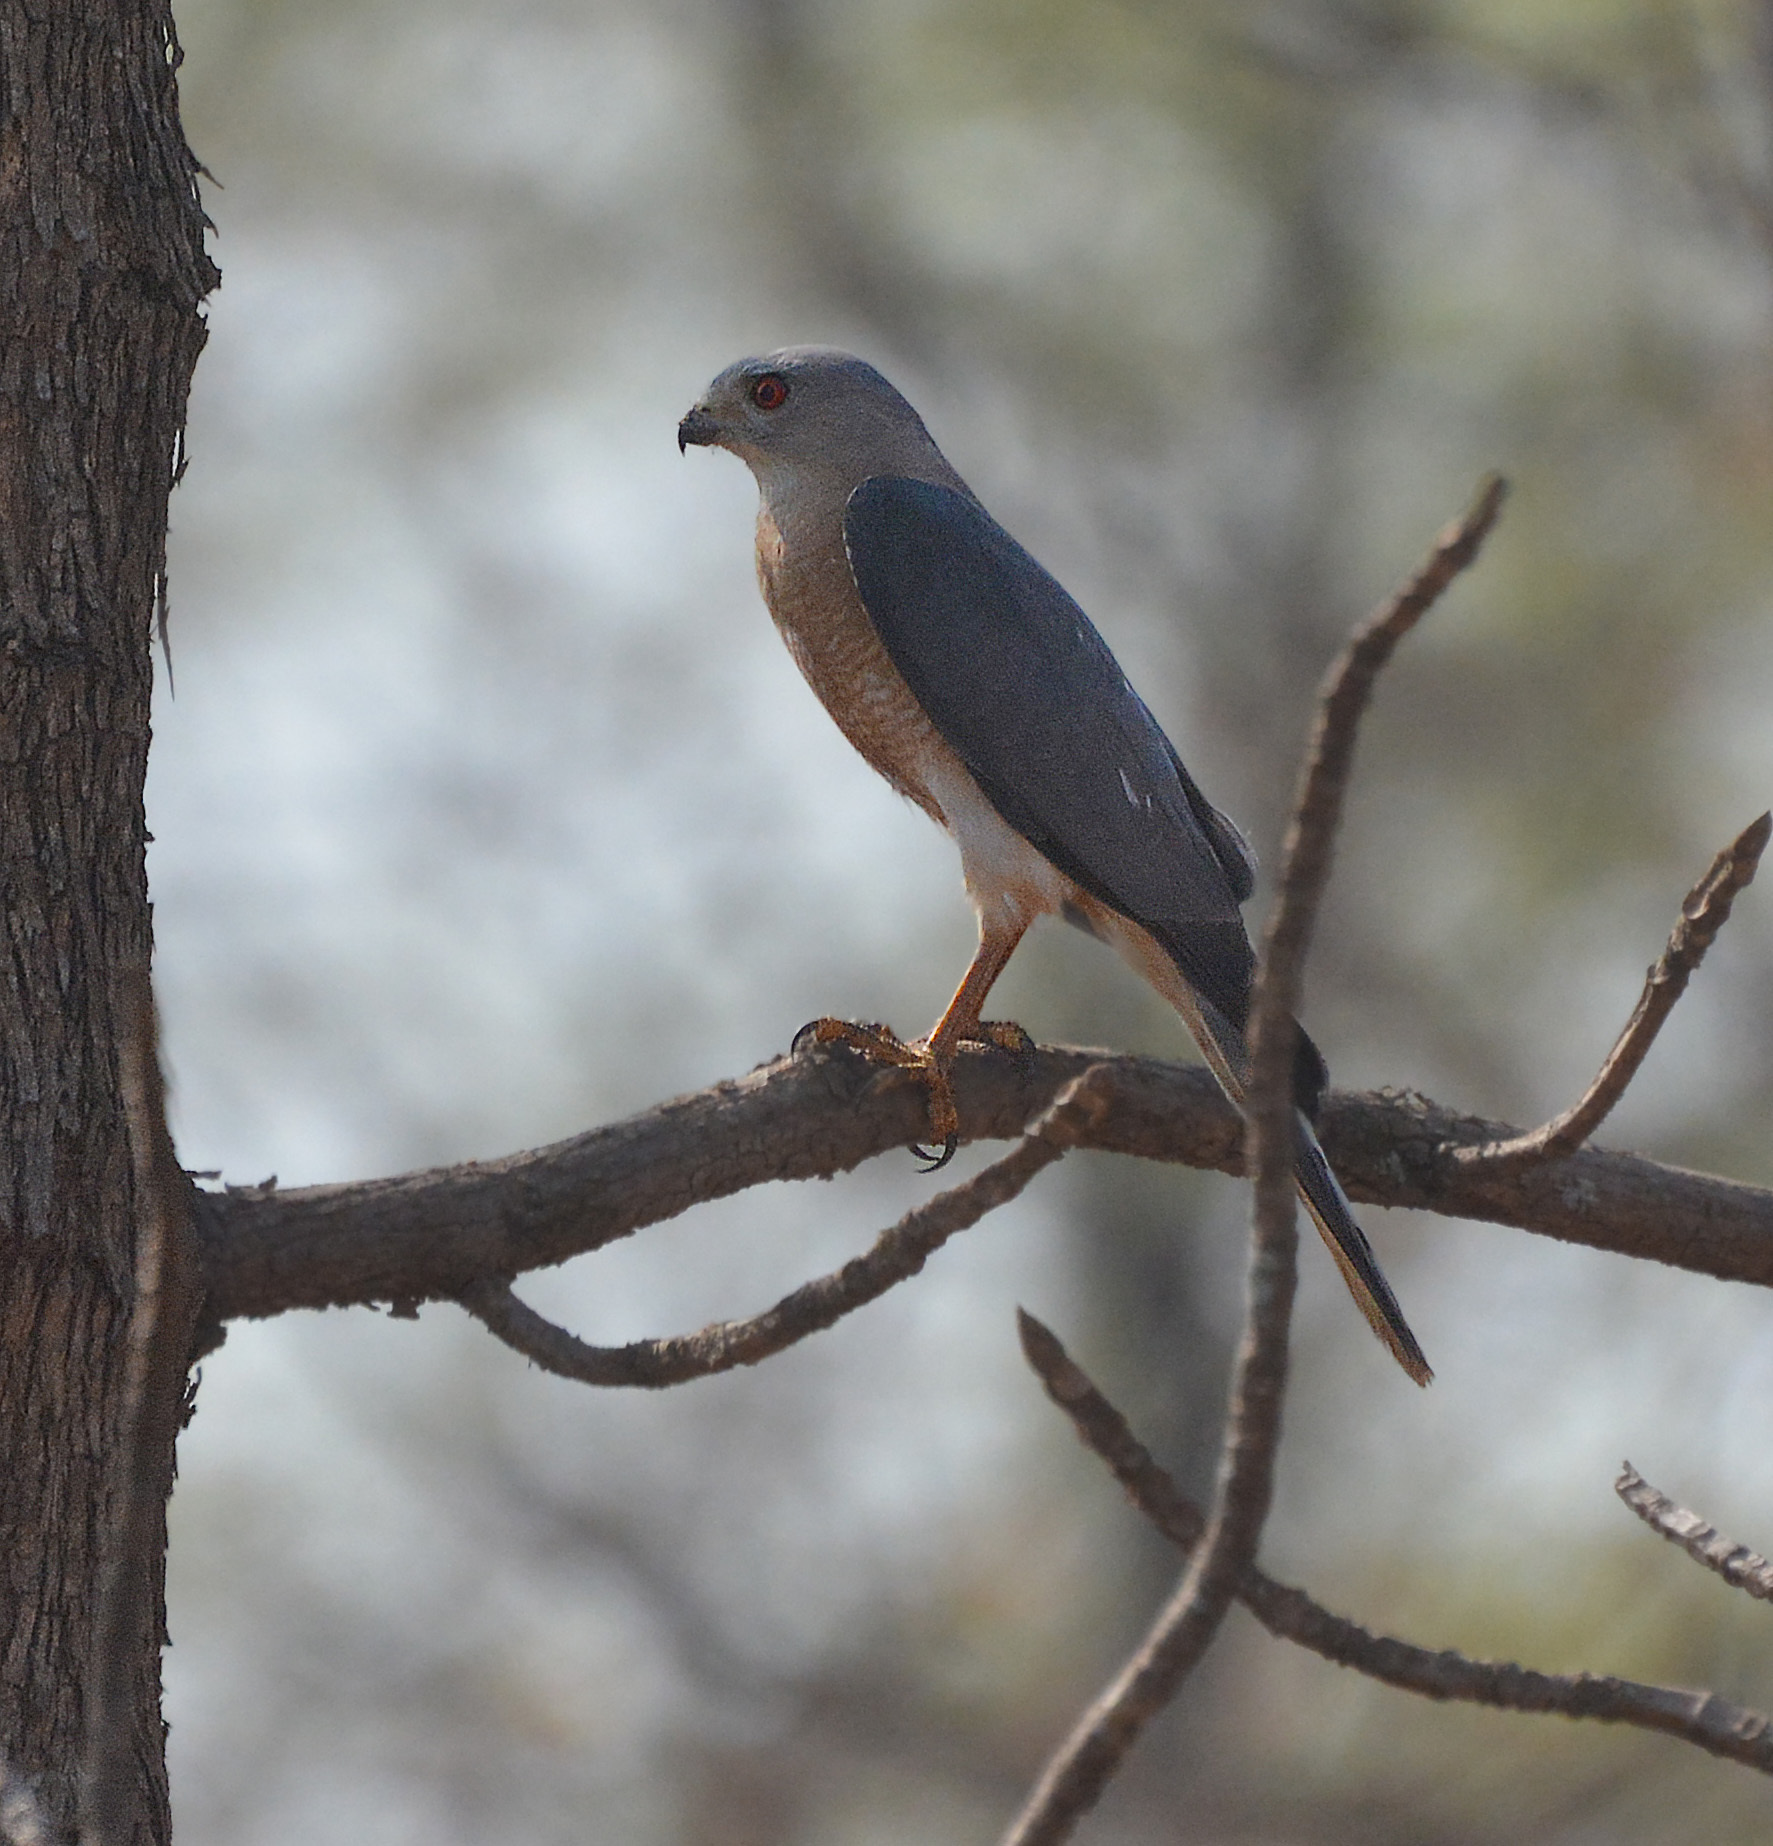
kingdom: Animalia
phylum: Chordata
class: Aves
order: Accipitriformes
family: Accipitridae
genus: Accipiter
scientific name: Accipiter badius
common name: Shikra
